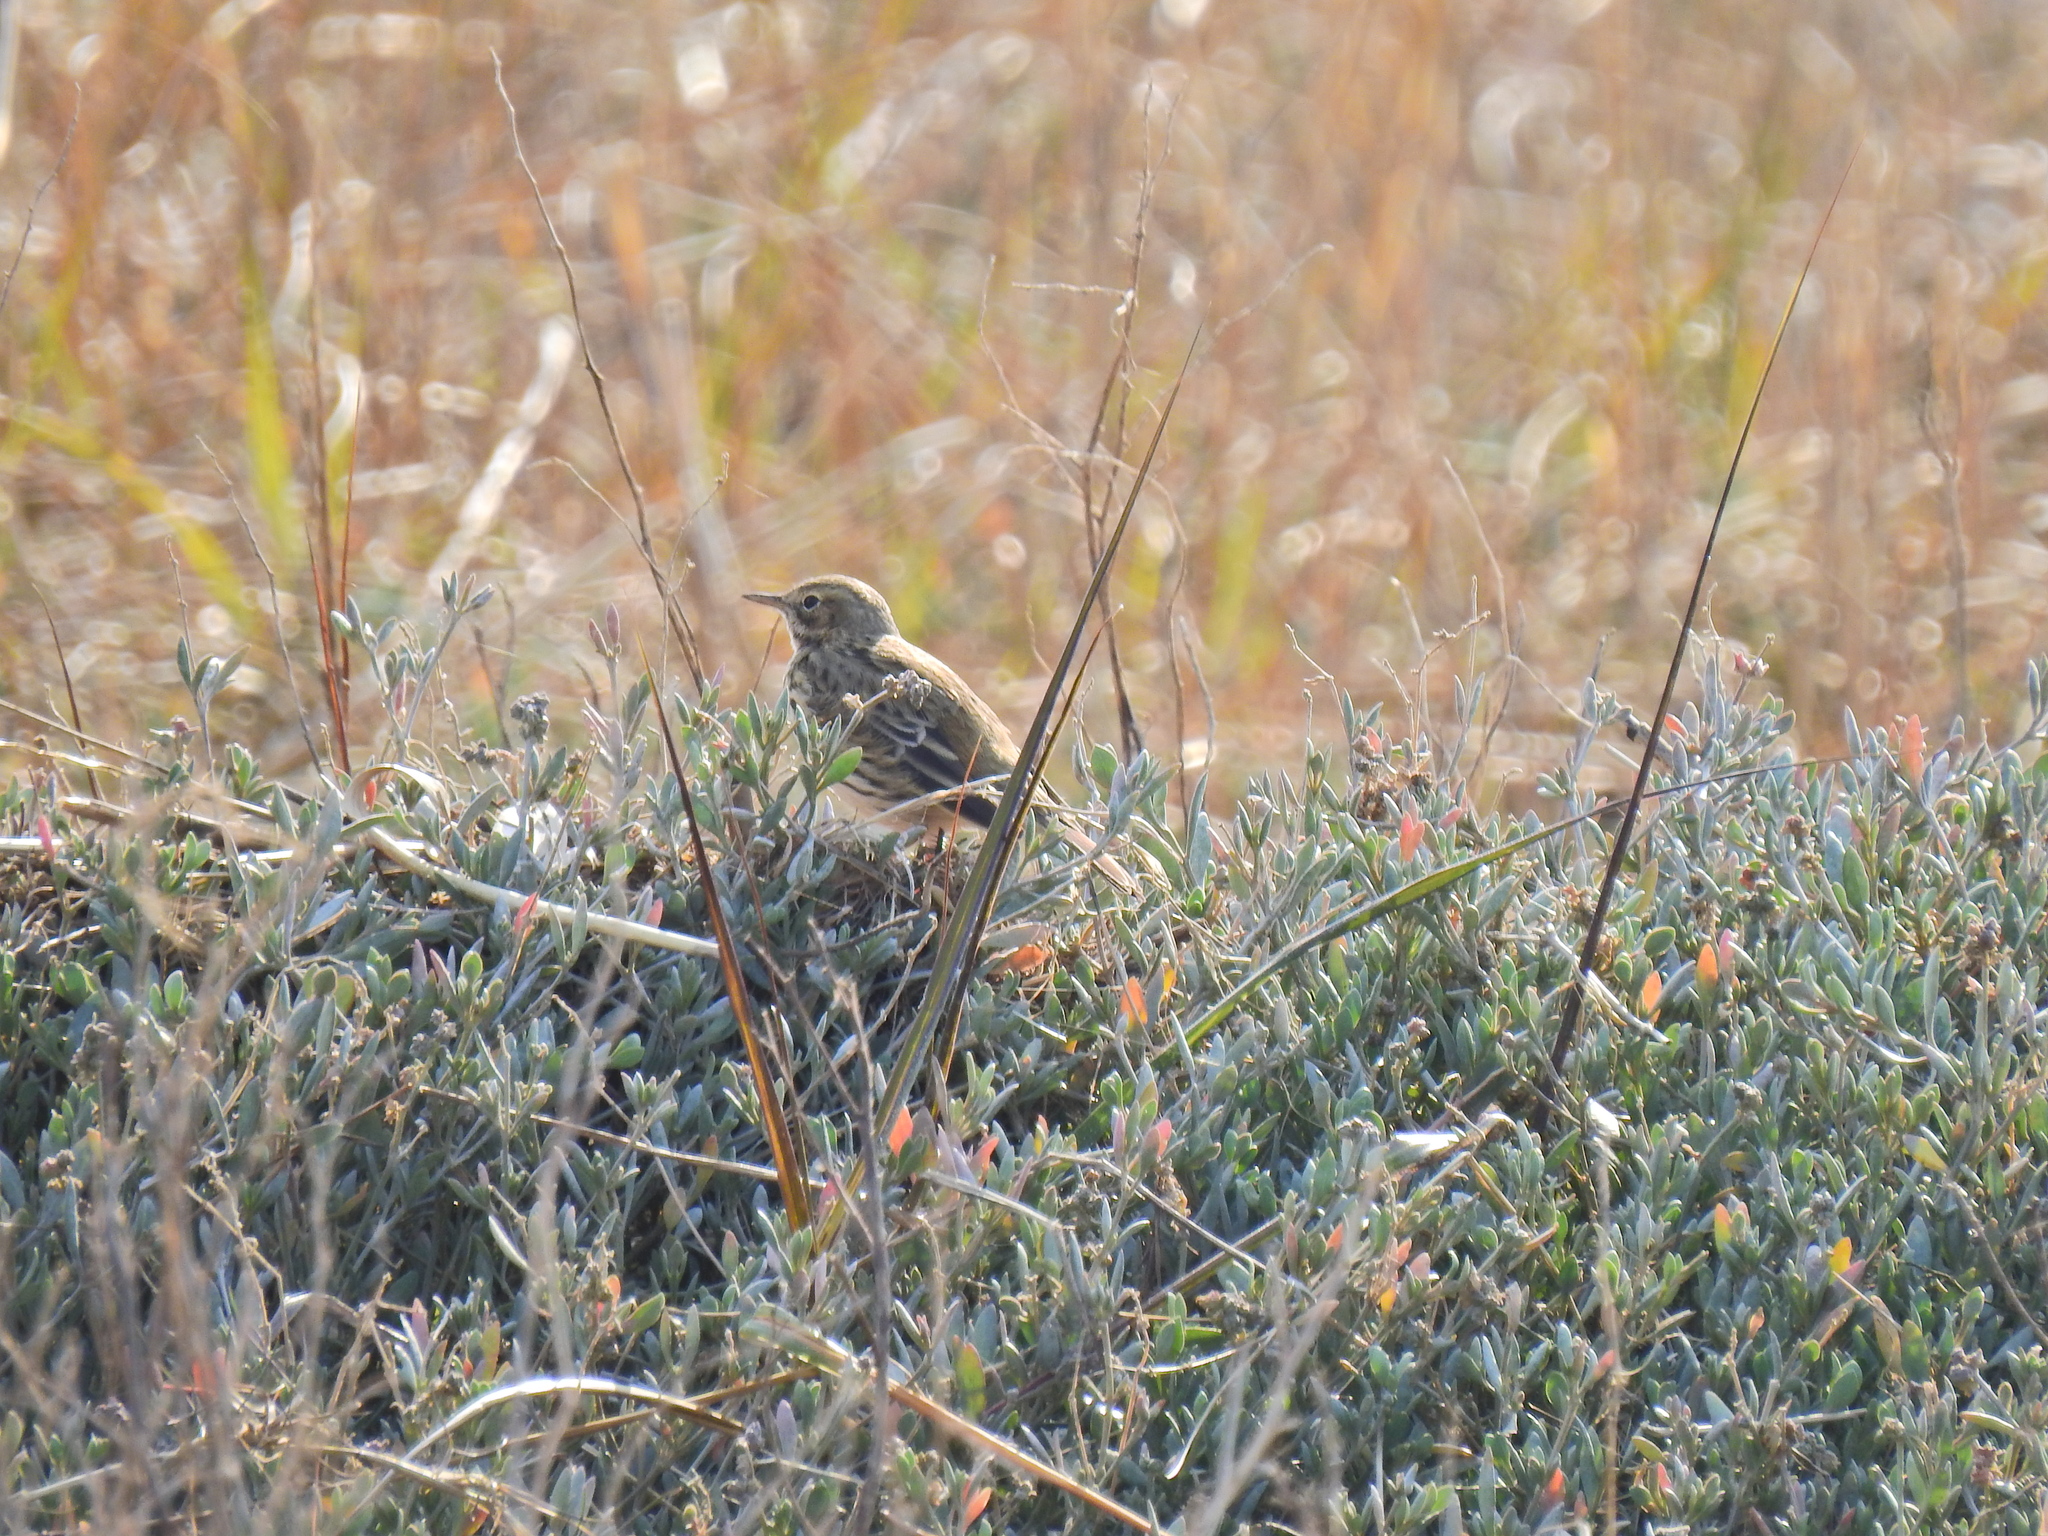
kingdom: Animalia
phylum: Chordata
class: Aves
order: Passeriformes
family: Motacillidae
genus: Anthus
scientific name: Anthus pratensis
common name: Meadow pipit
